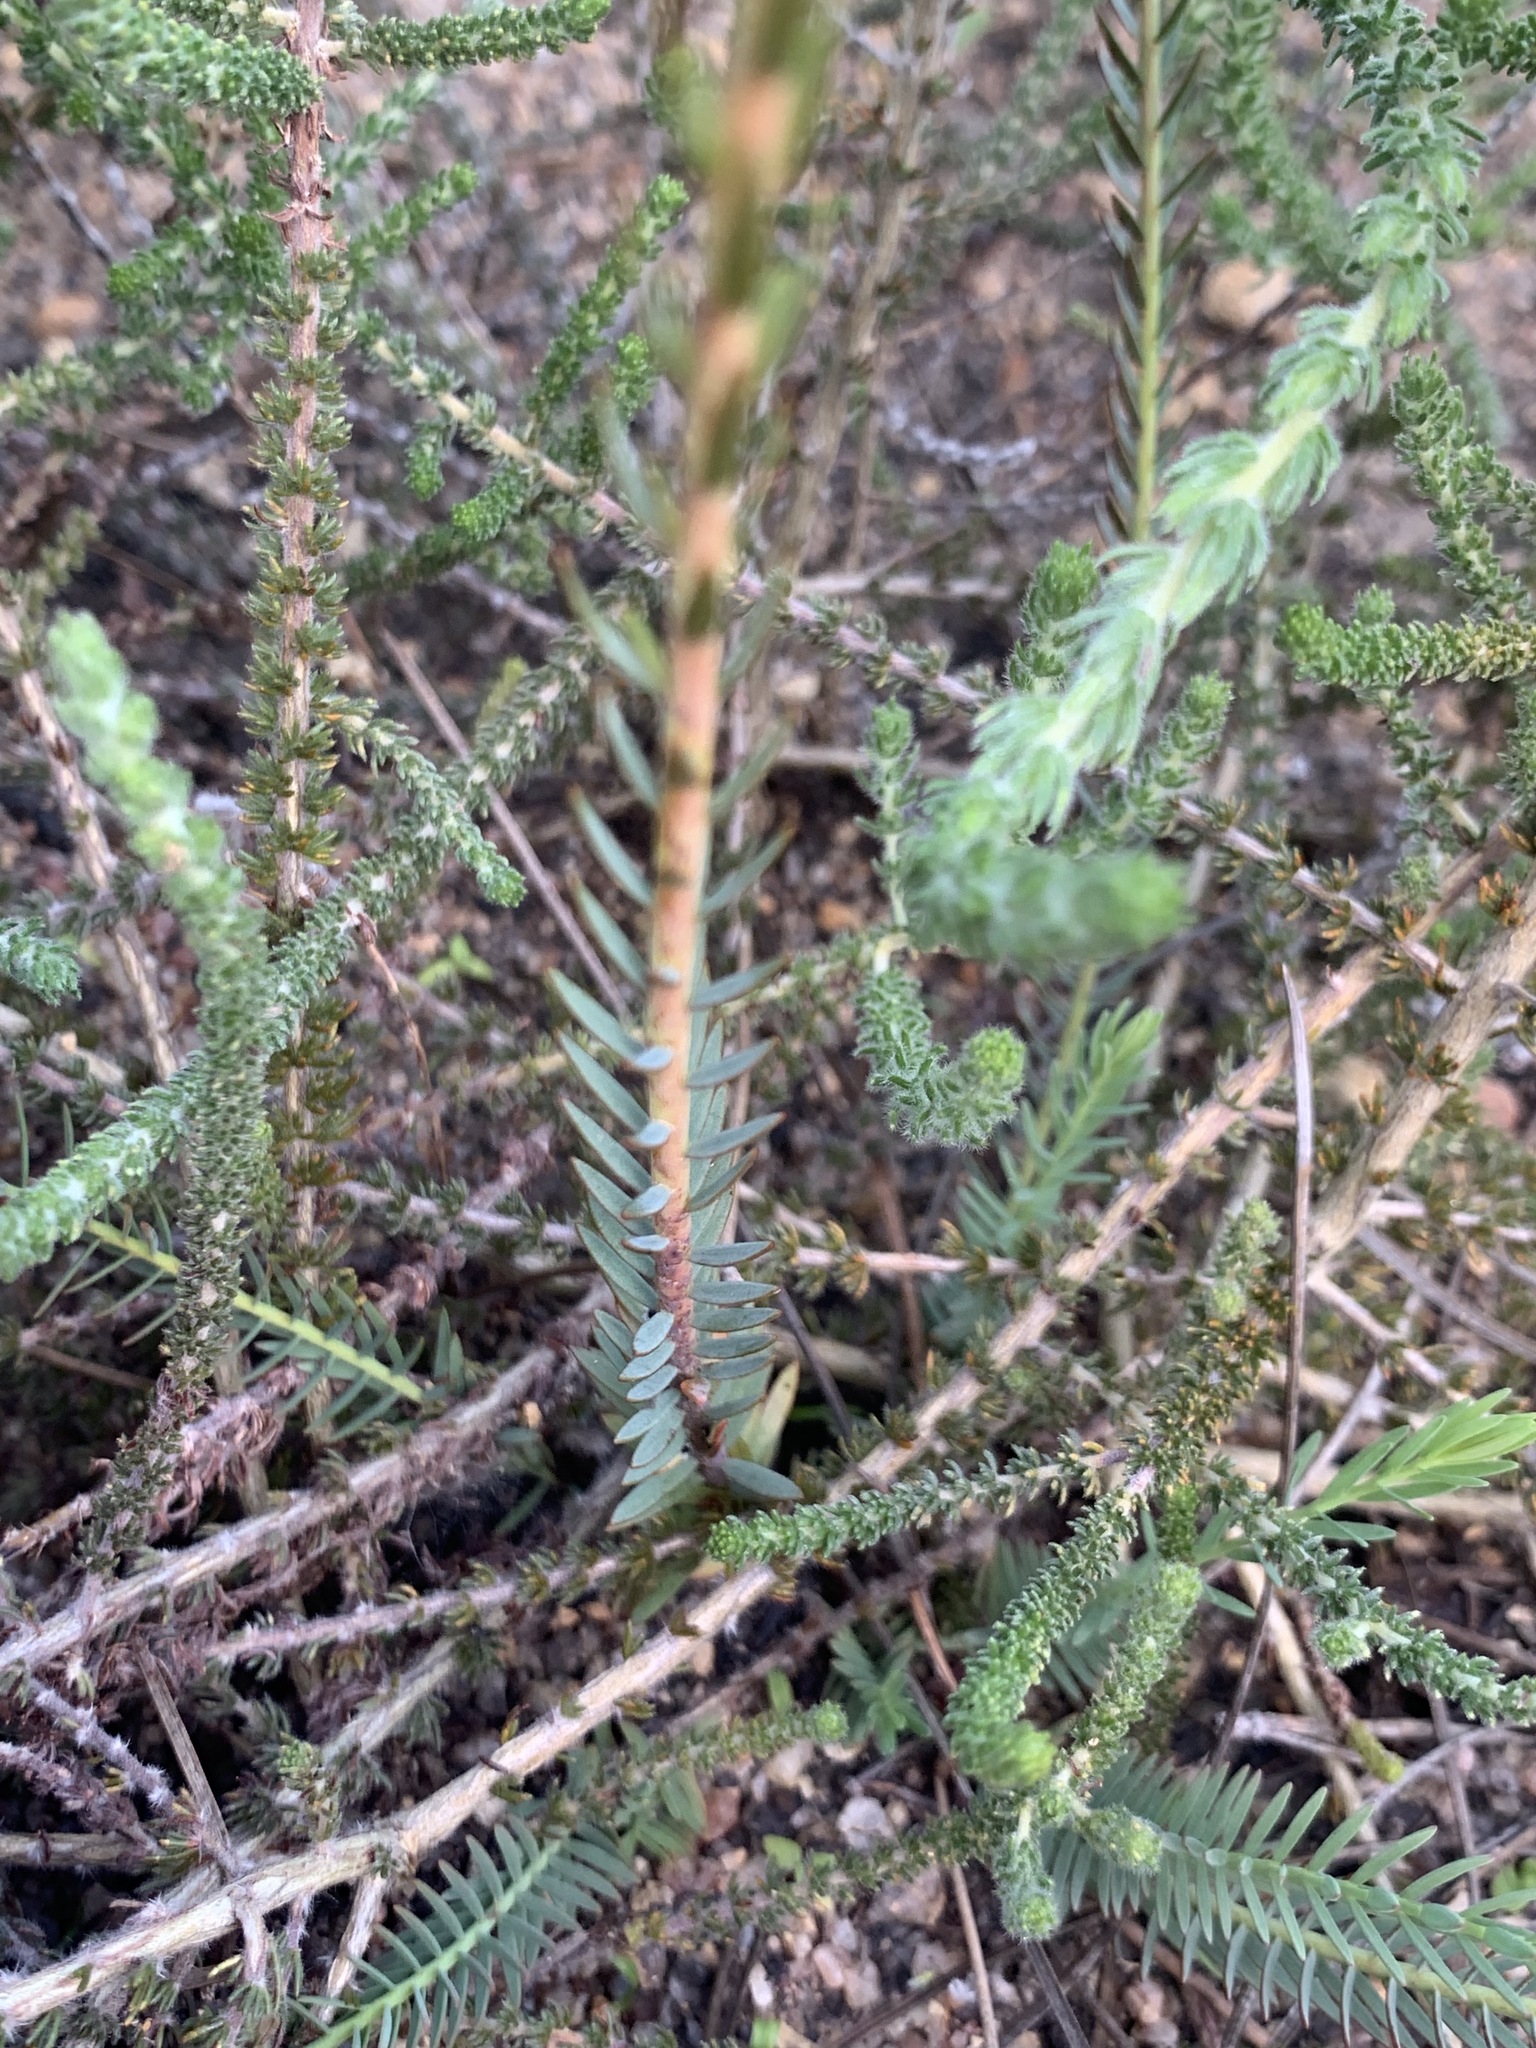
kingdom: Plantae
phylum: Tracheophyta
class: Magnoliopsida
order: Malvales
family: Thymelaeaceae
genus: Struthiola
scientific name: Struthiola dodecandra
